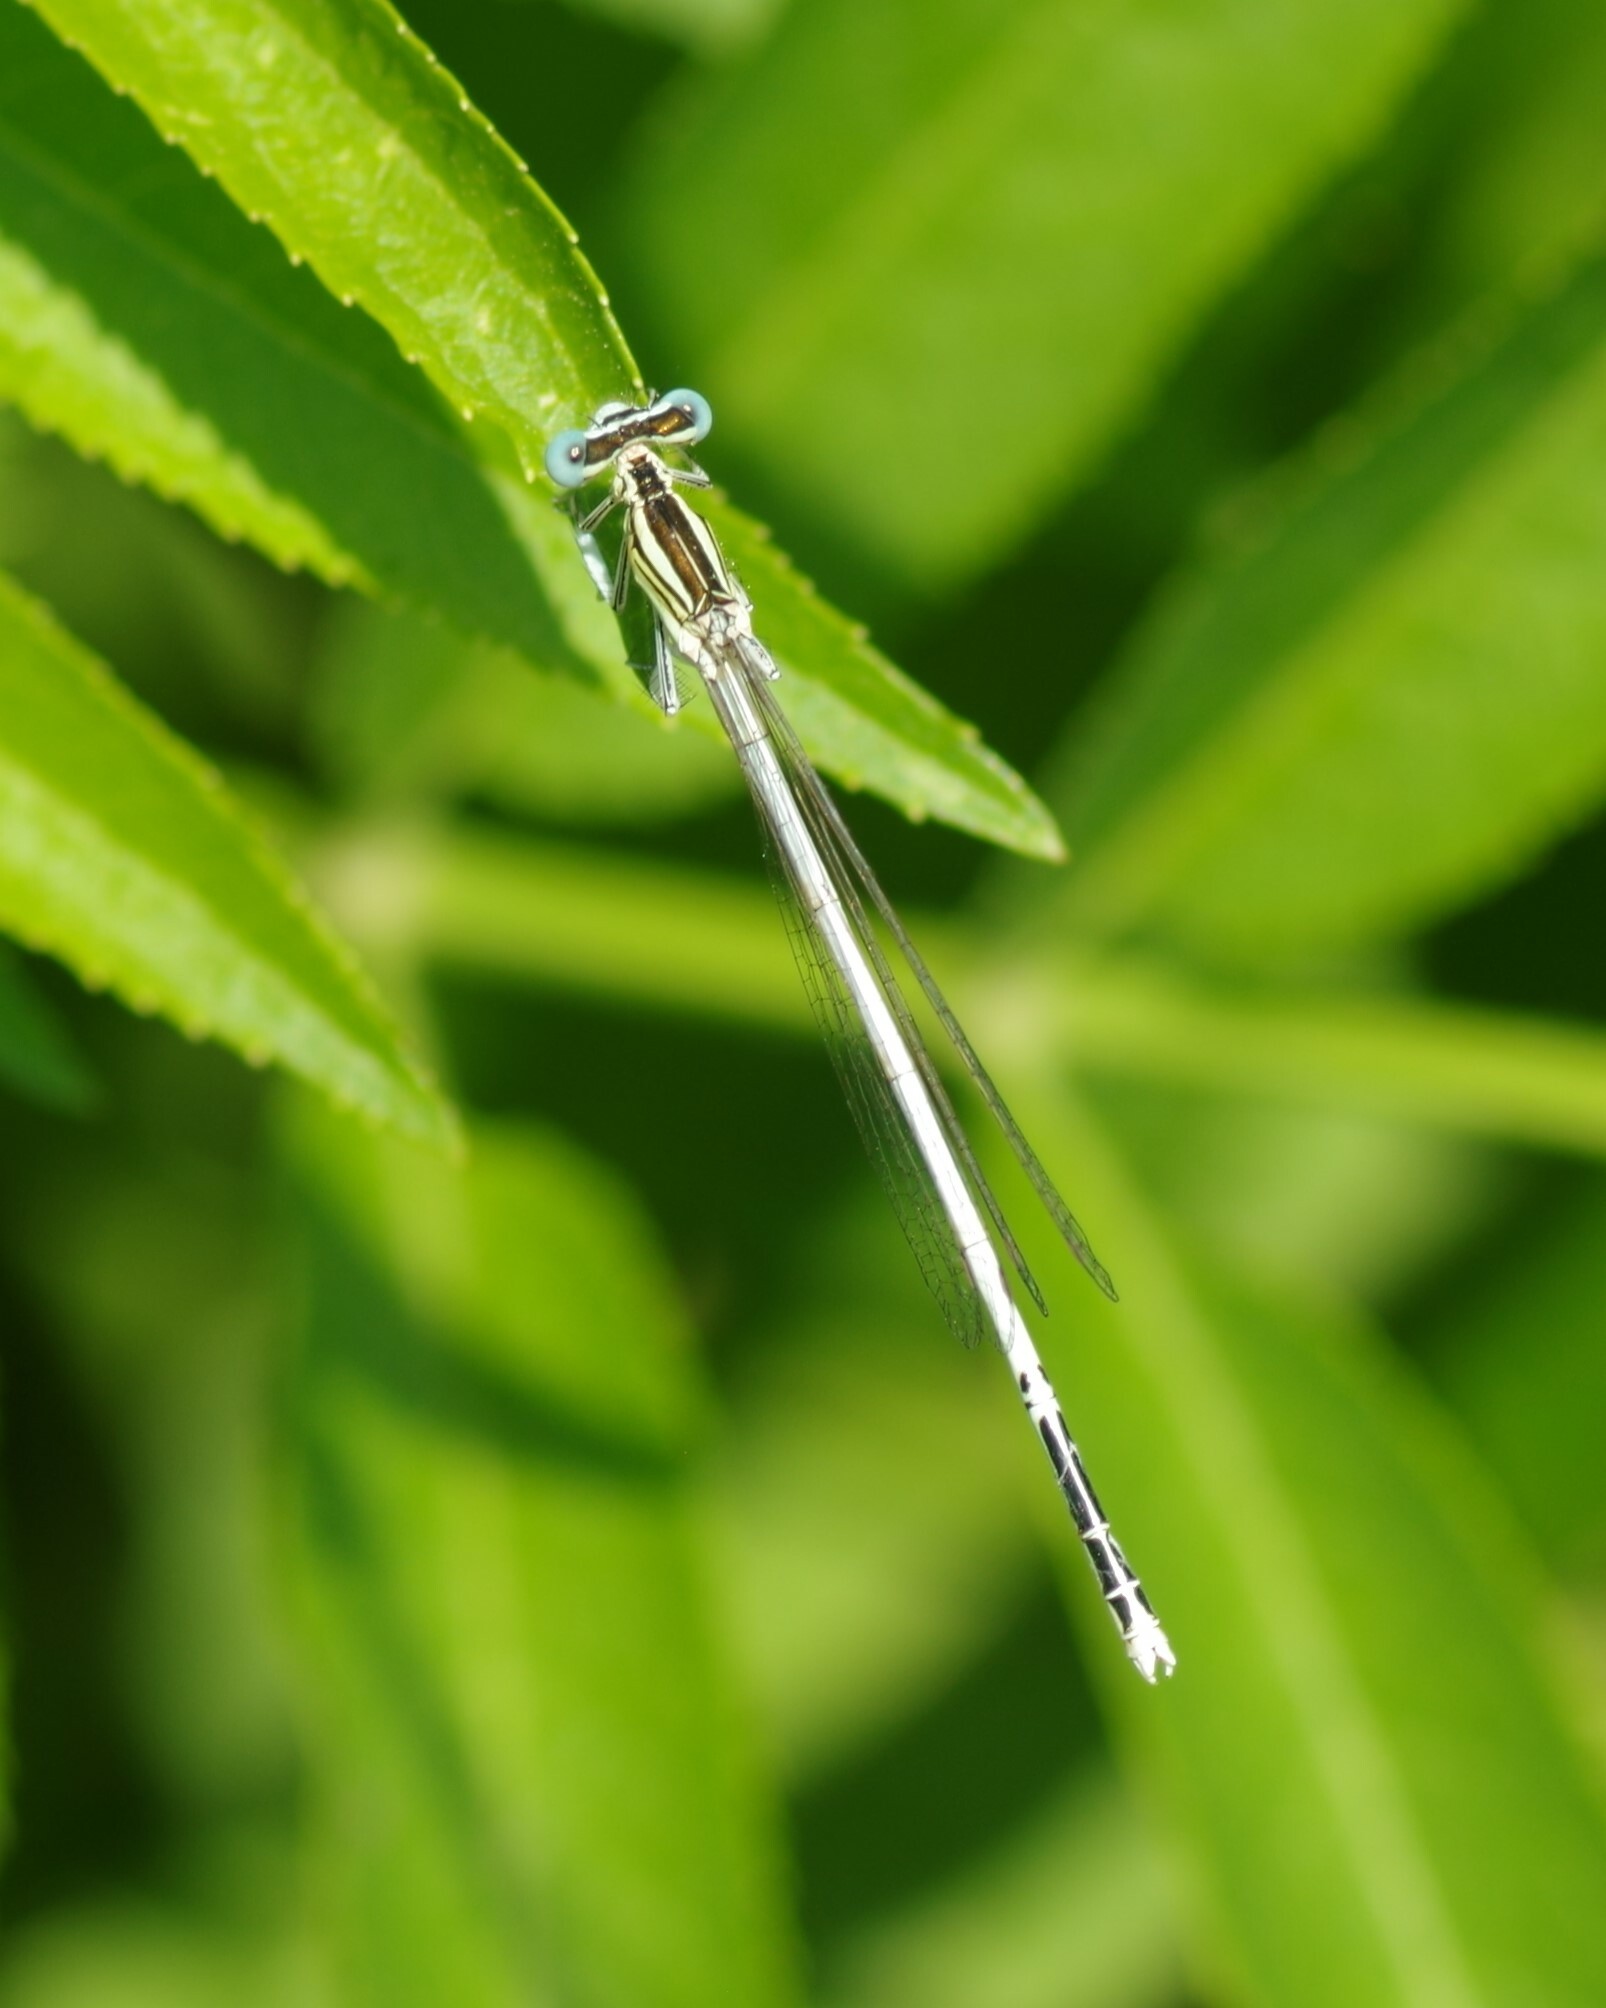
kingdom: Animalia
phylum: Arthropoda
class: Insecta
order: Odonata
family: Platycnemididae
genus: Platycnemis
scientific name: Platycnemis latipes
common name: White featherleg
